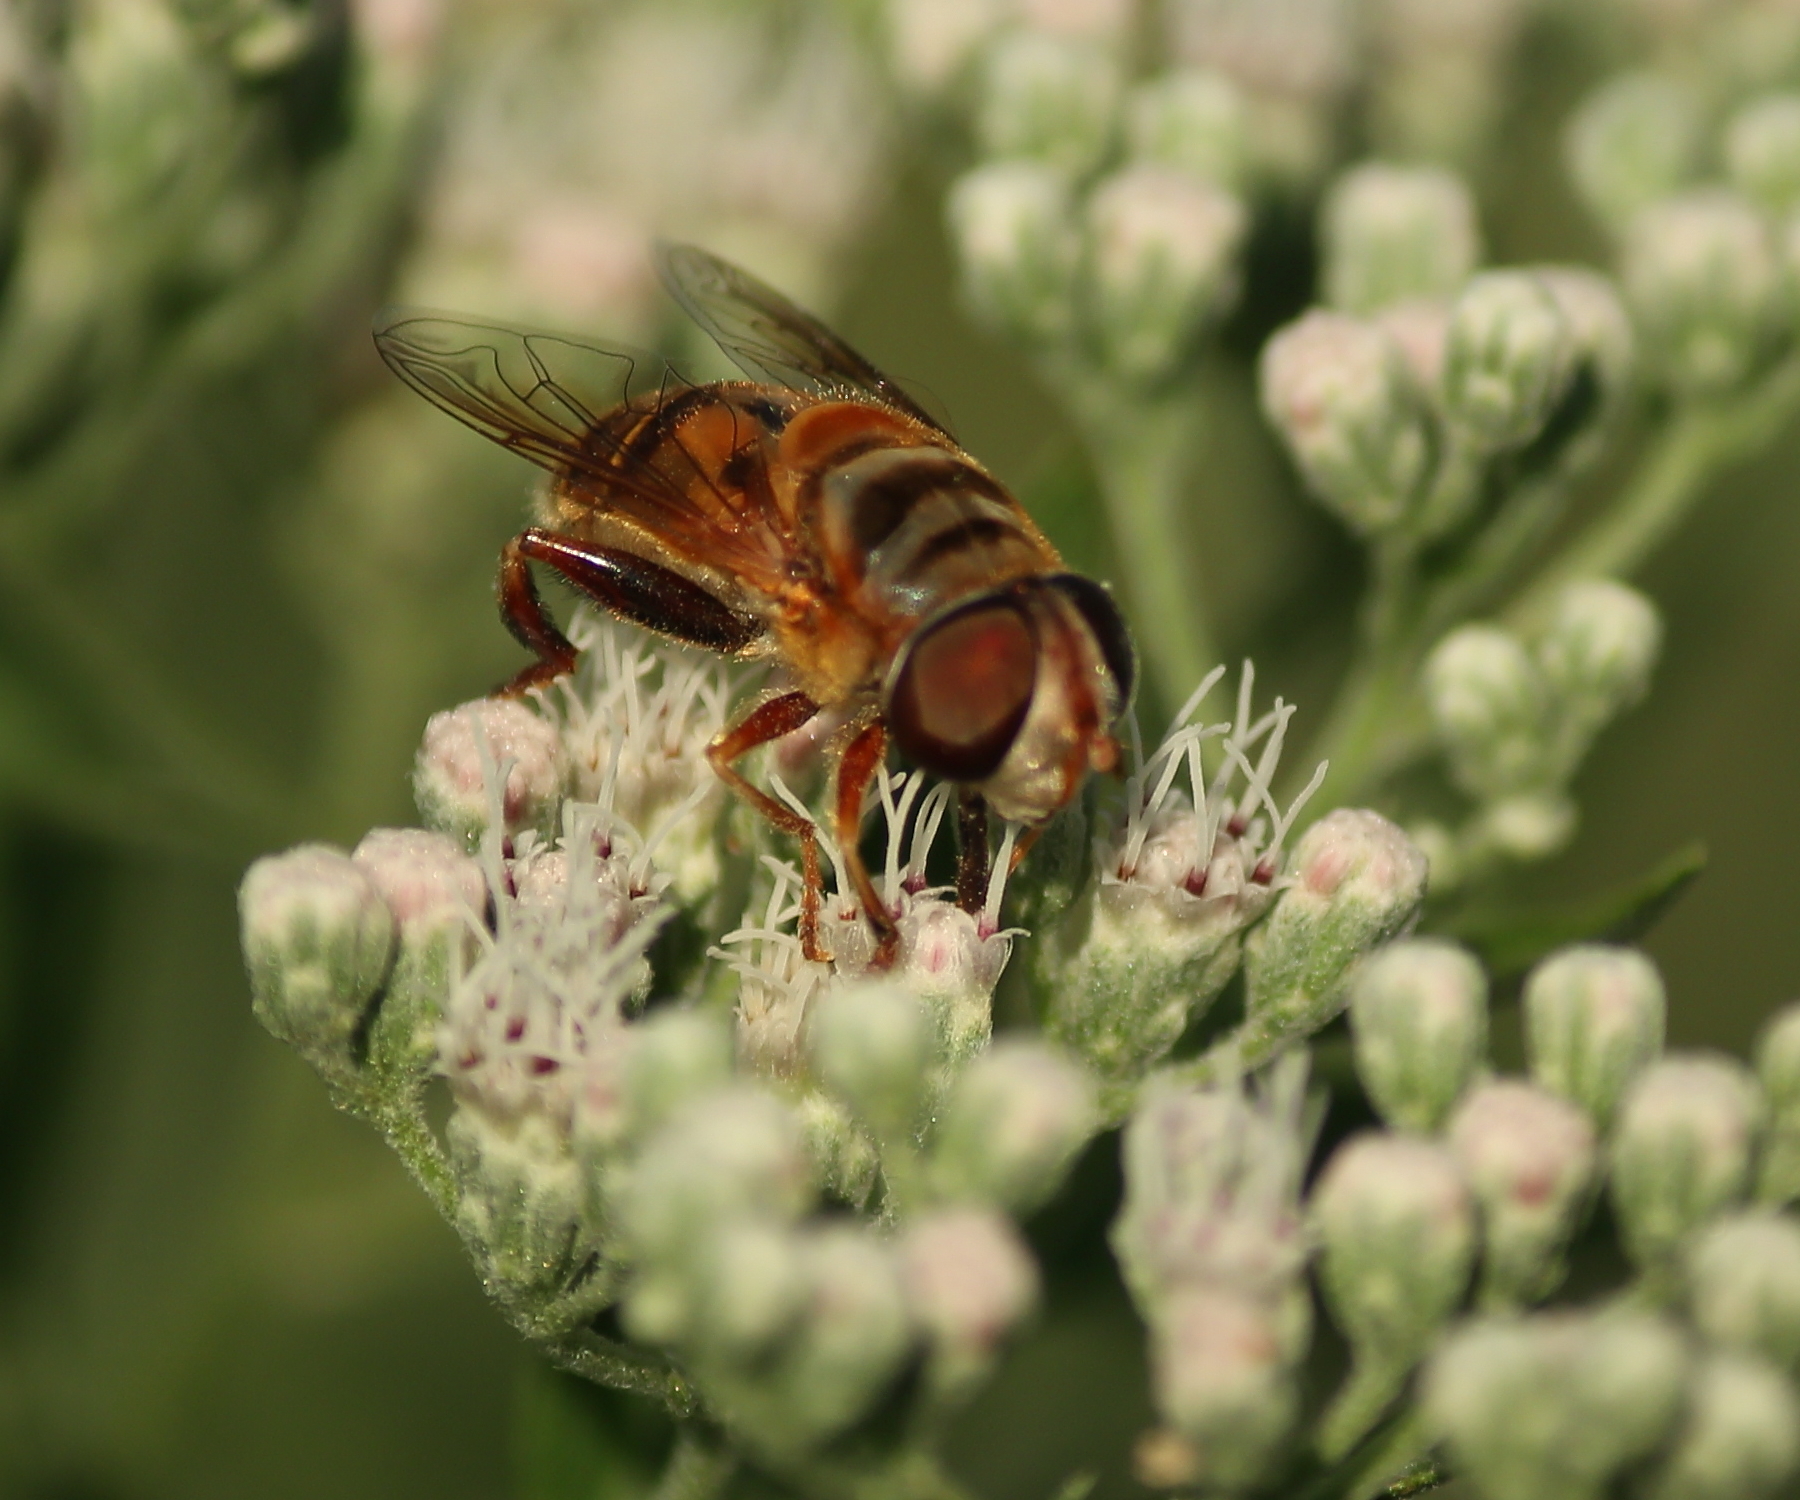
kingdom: Animalia
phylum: Arthropoda
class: Insecta
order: Diptera
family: Syrphidae
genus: Palpada
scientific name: Palpada vinetorum
